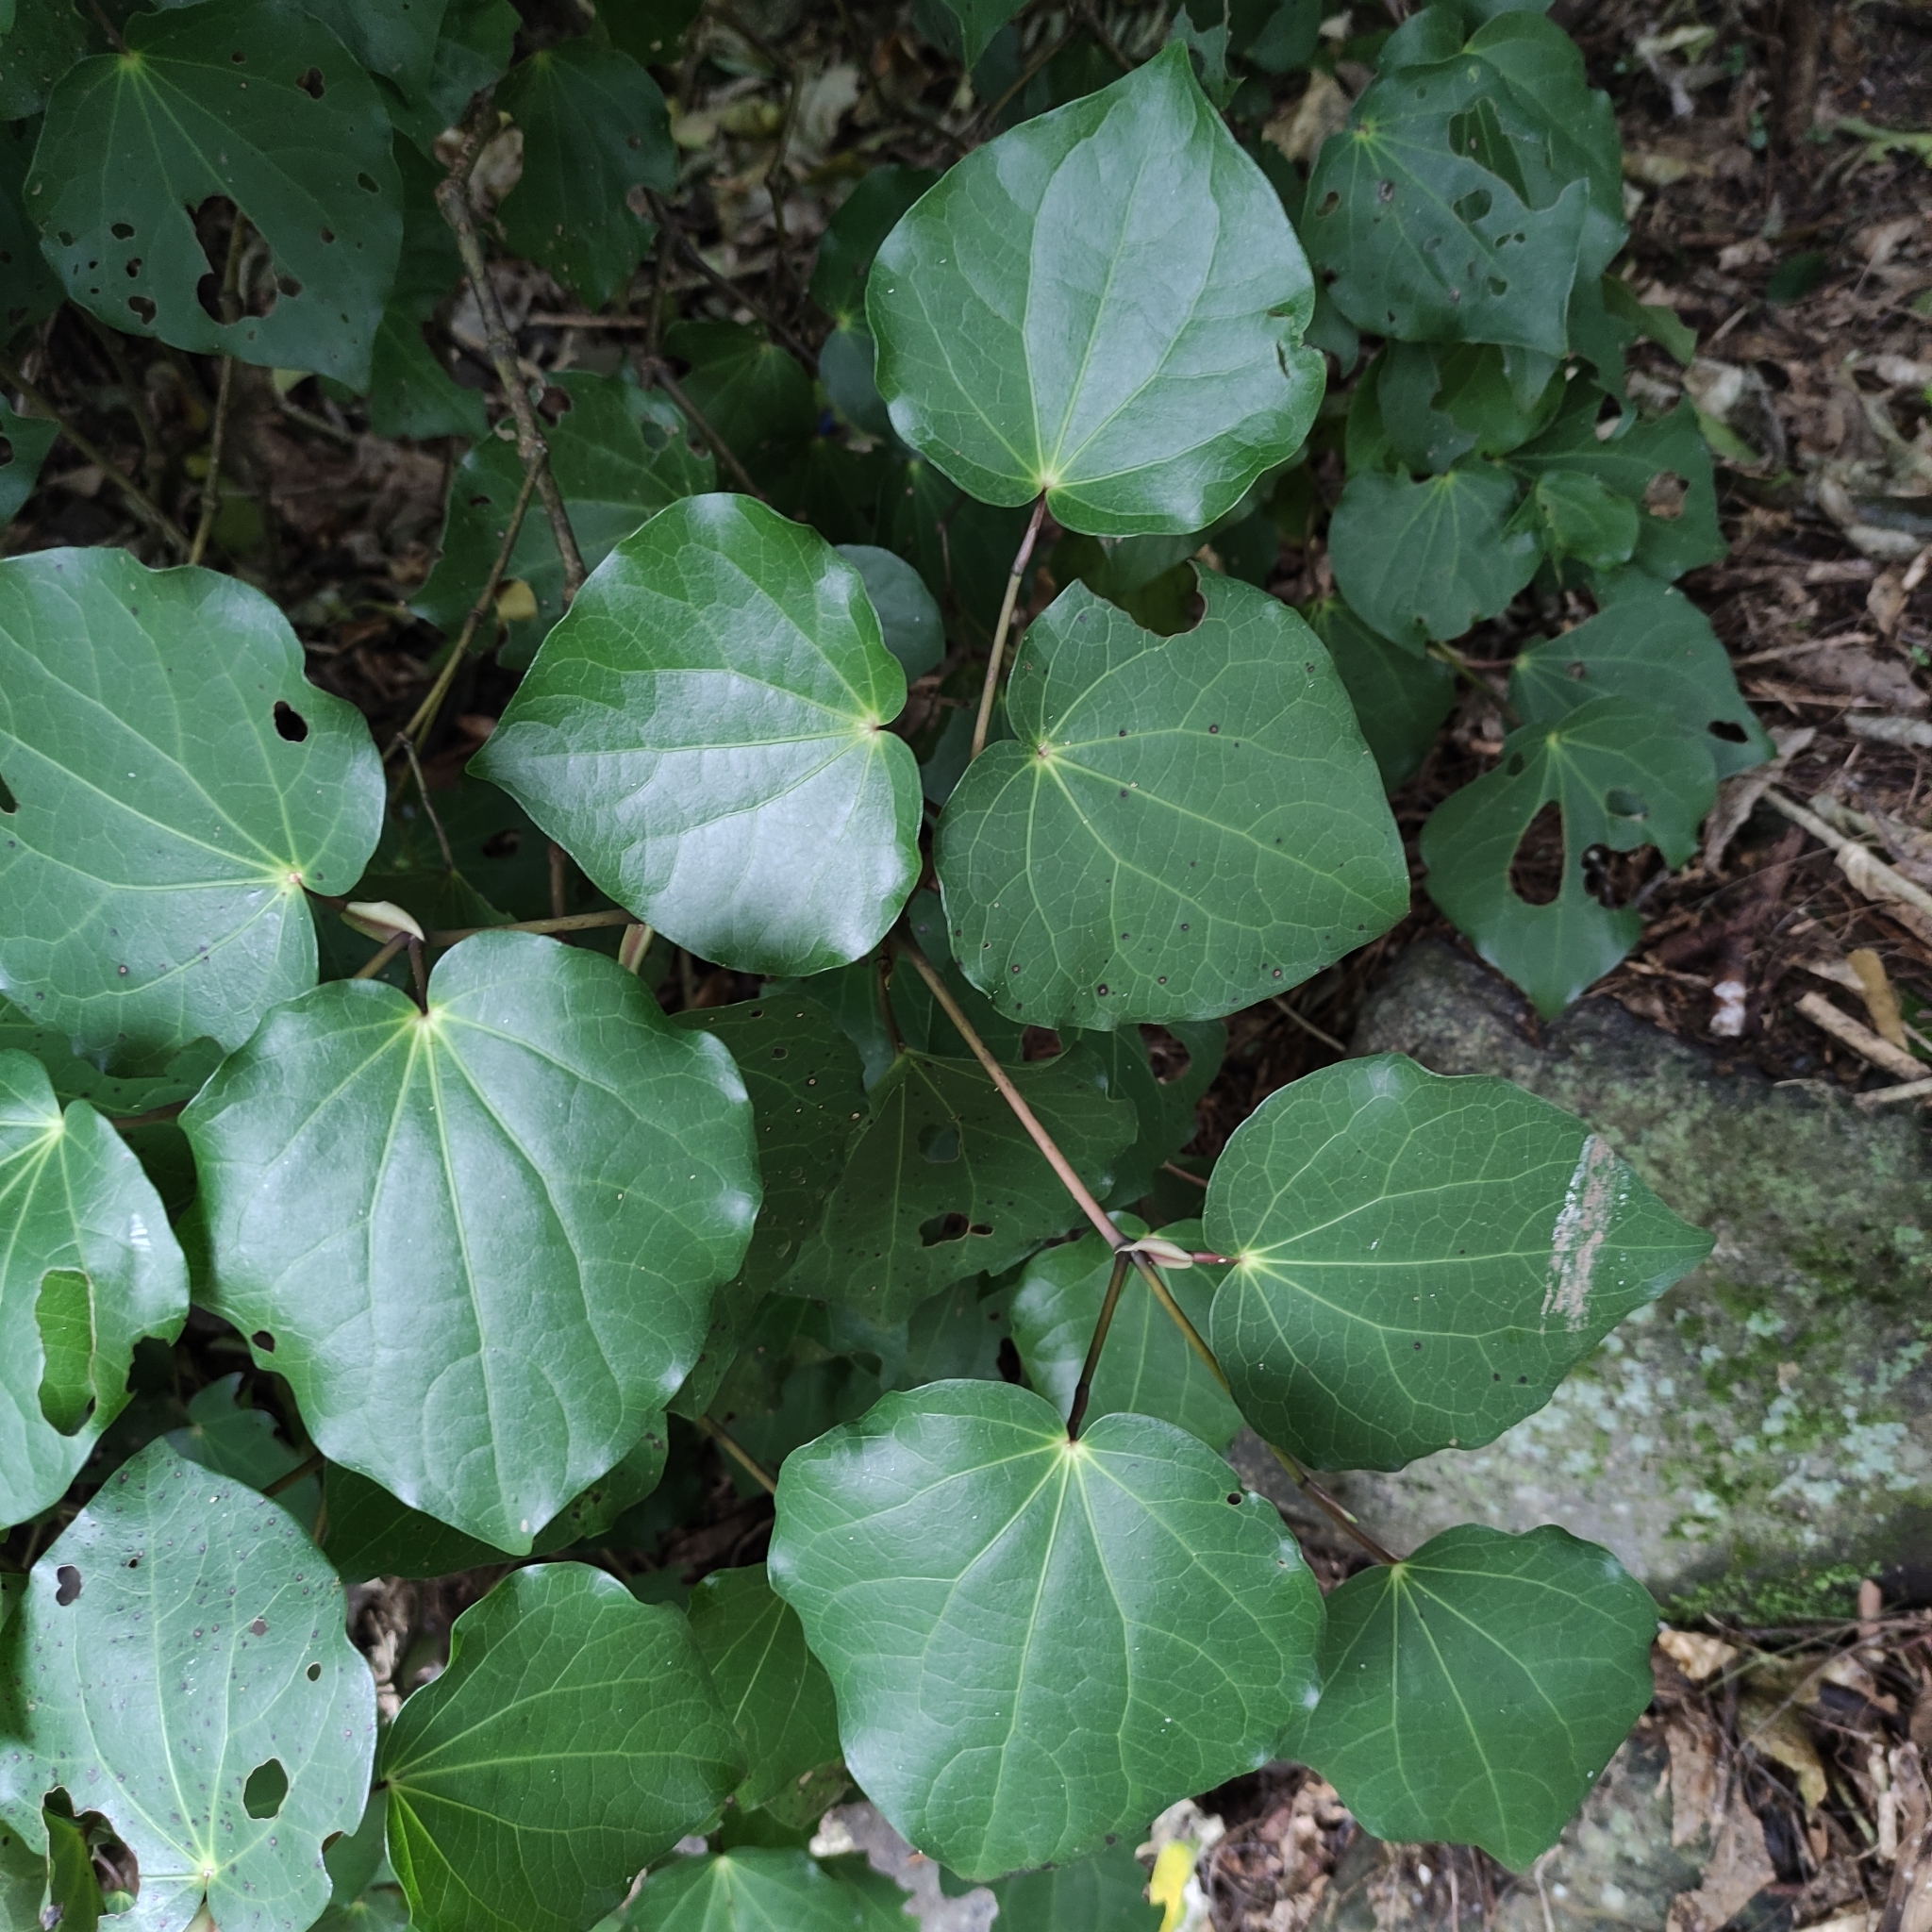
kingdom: Plantae
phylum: Tracheophyta
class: Magnoliopsida
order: Piperales
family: Piperaceae
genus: Macropiper
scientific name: Macropiper excelsum
